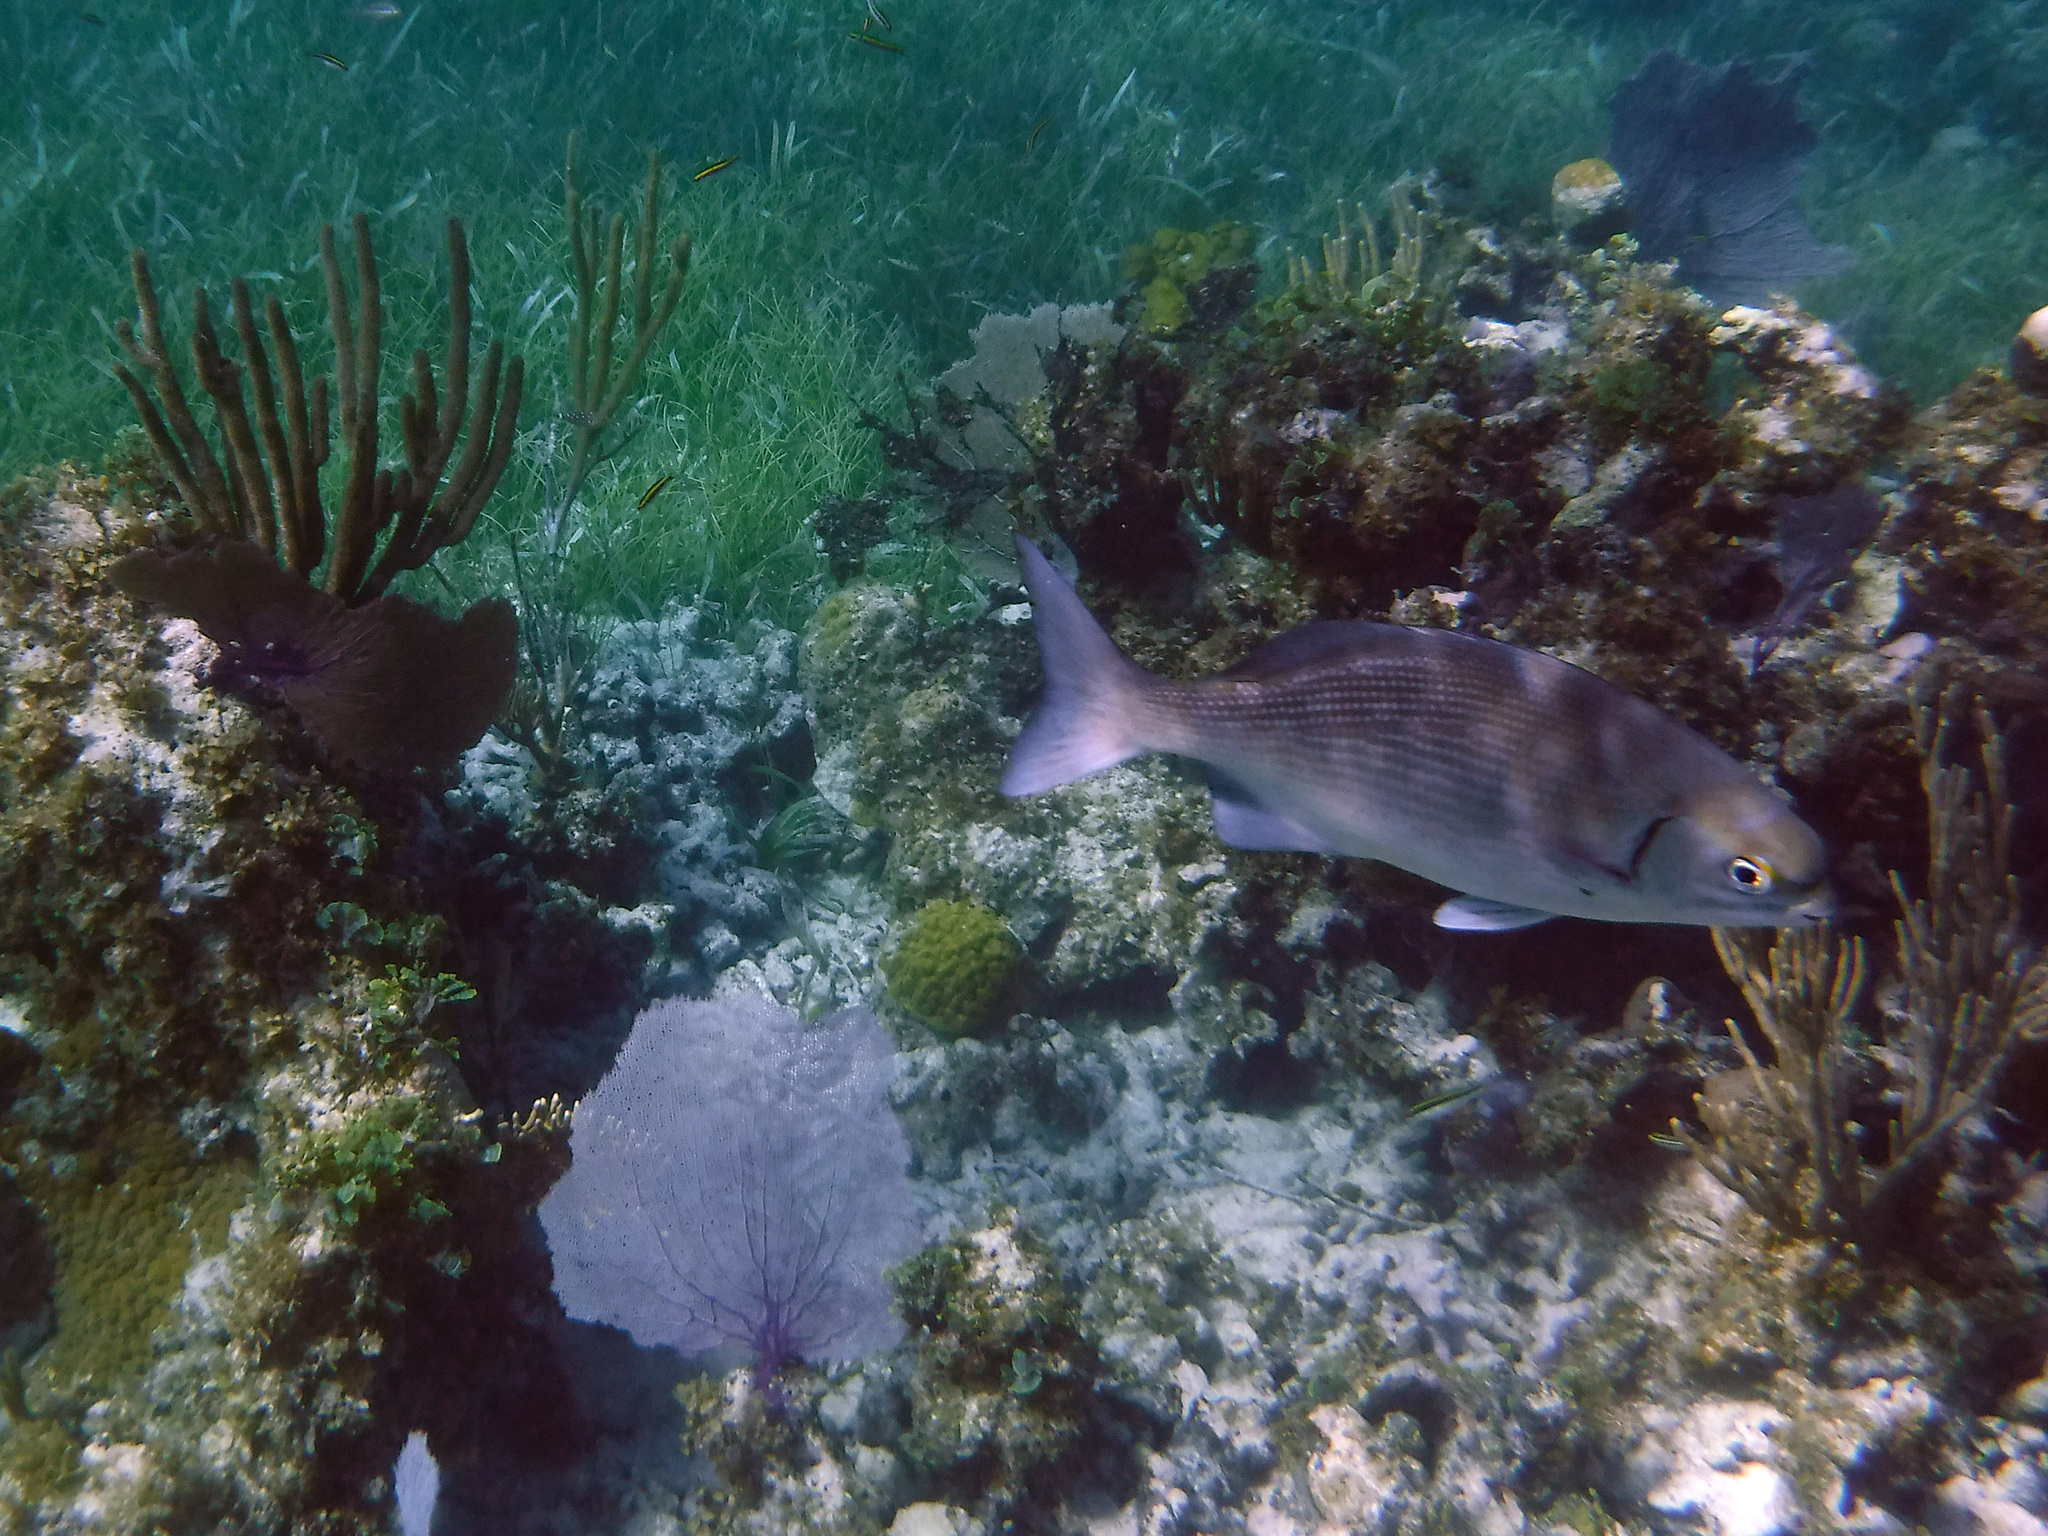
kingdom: Animalia
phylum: Chordata
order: Perciformes
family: Kyphosidae
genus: Kyphosus
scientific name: Kyphosus sectatrix
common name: Bermuda chub
